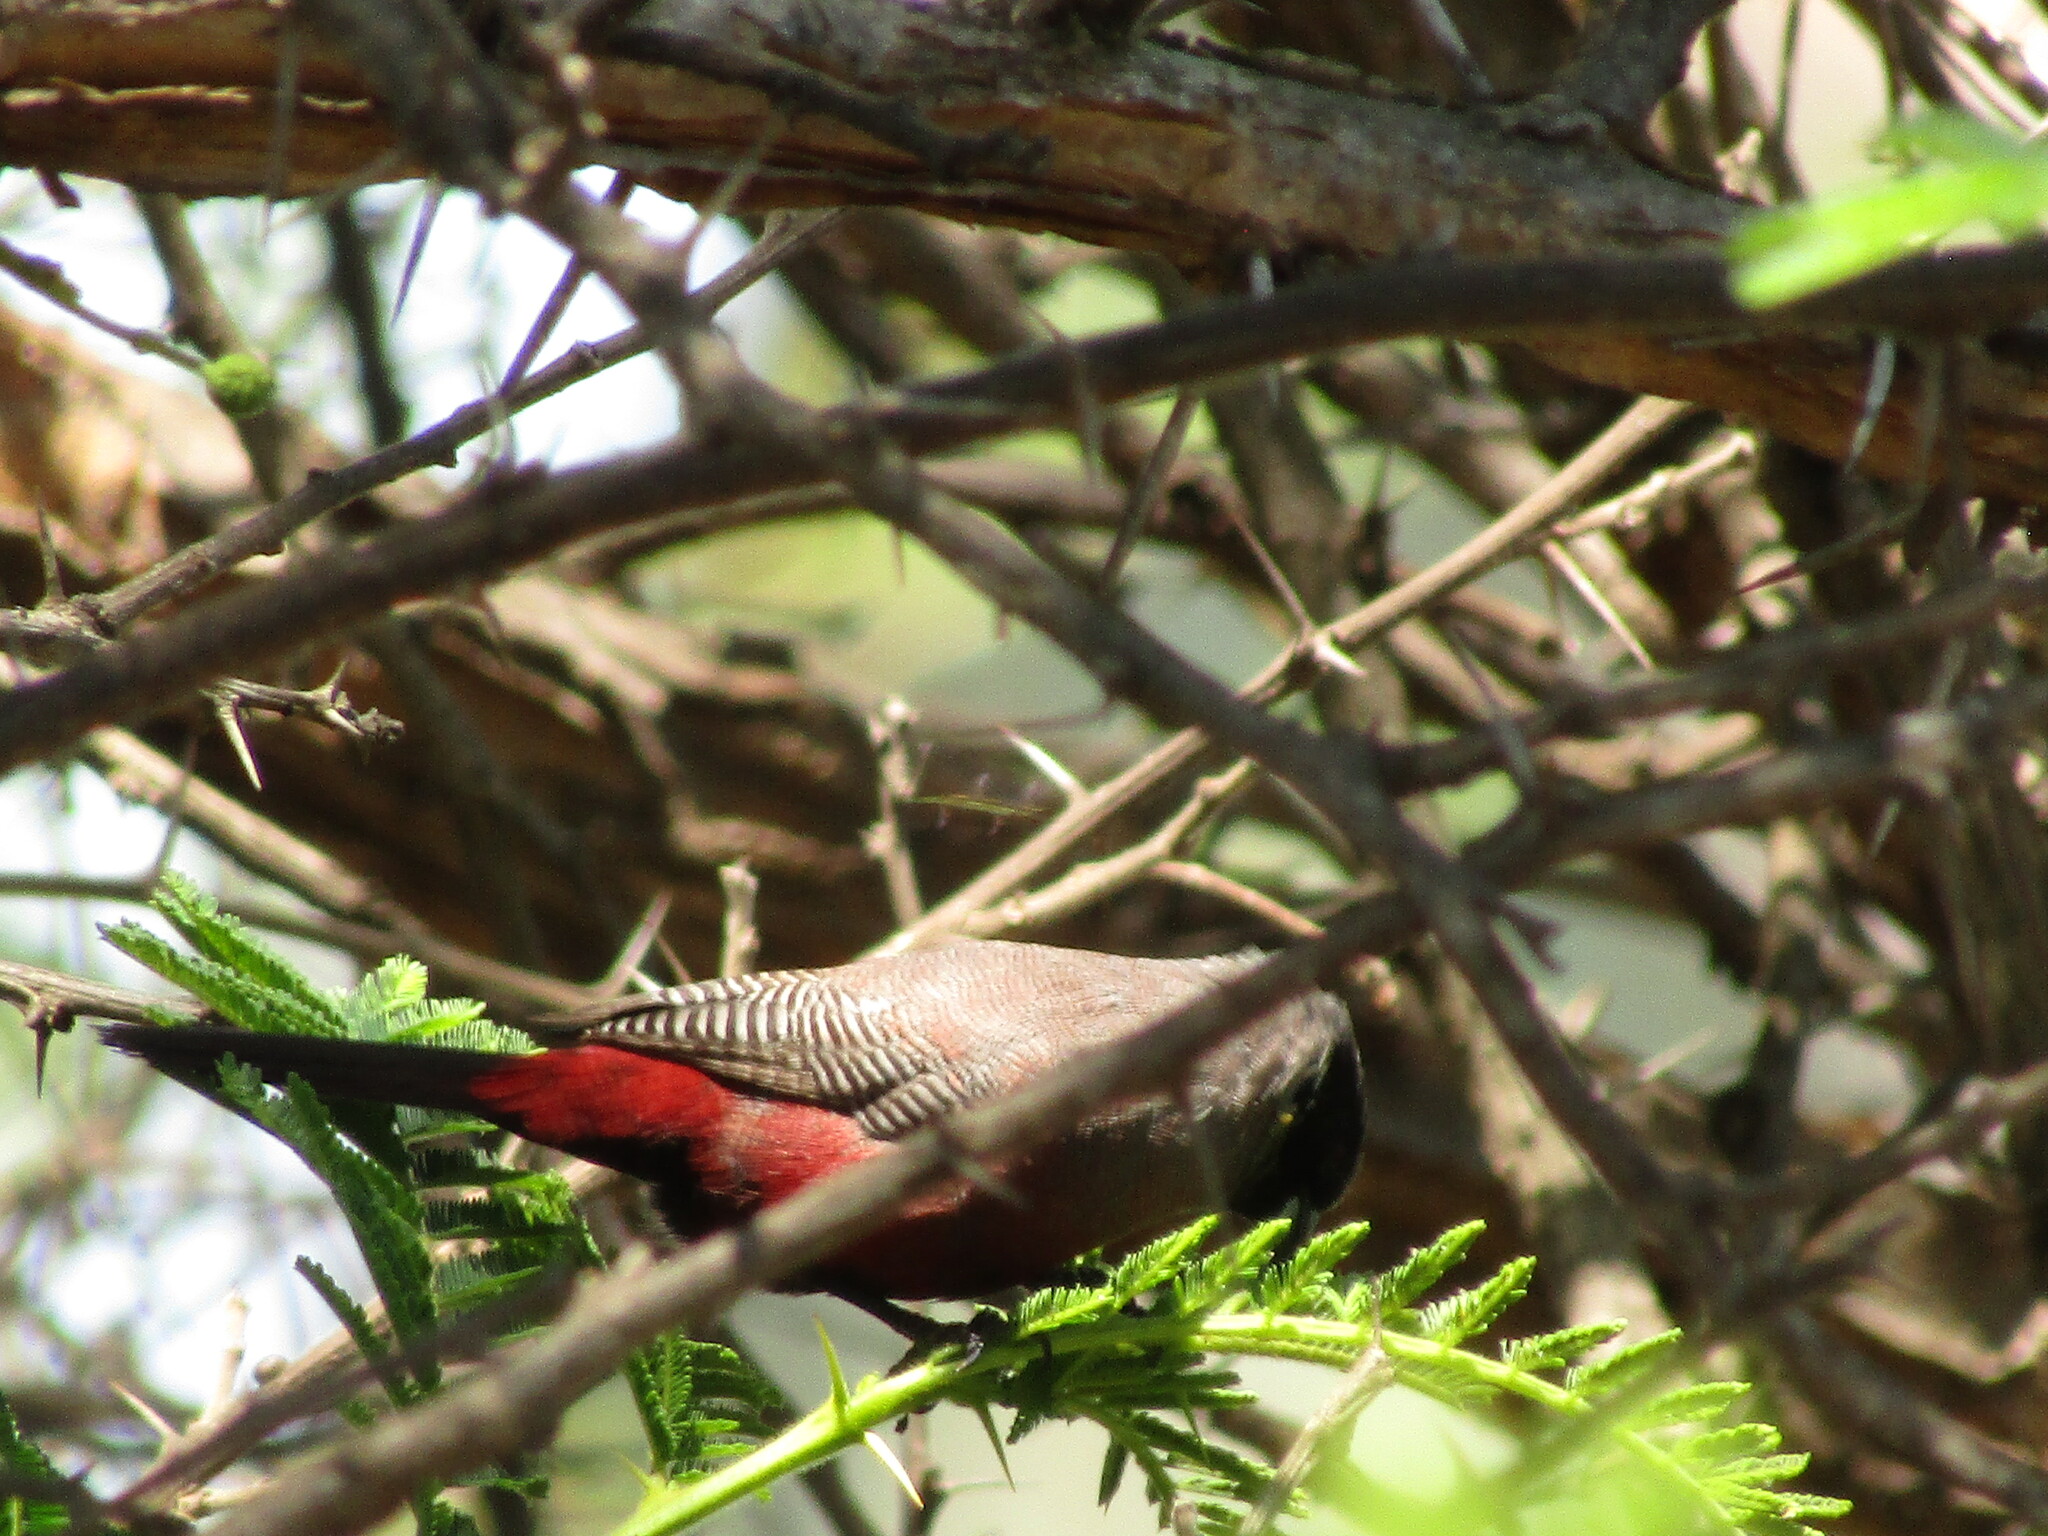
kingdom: Animalia
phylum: Chordata
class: Aves
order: Passeriformes
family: Estrildidae
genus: Estrilda
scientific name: Estrilda erythronotos
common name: Black-faced waxbill
